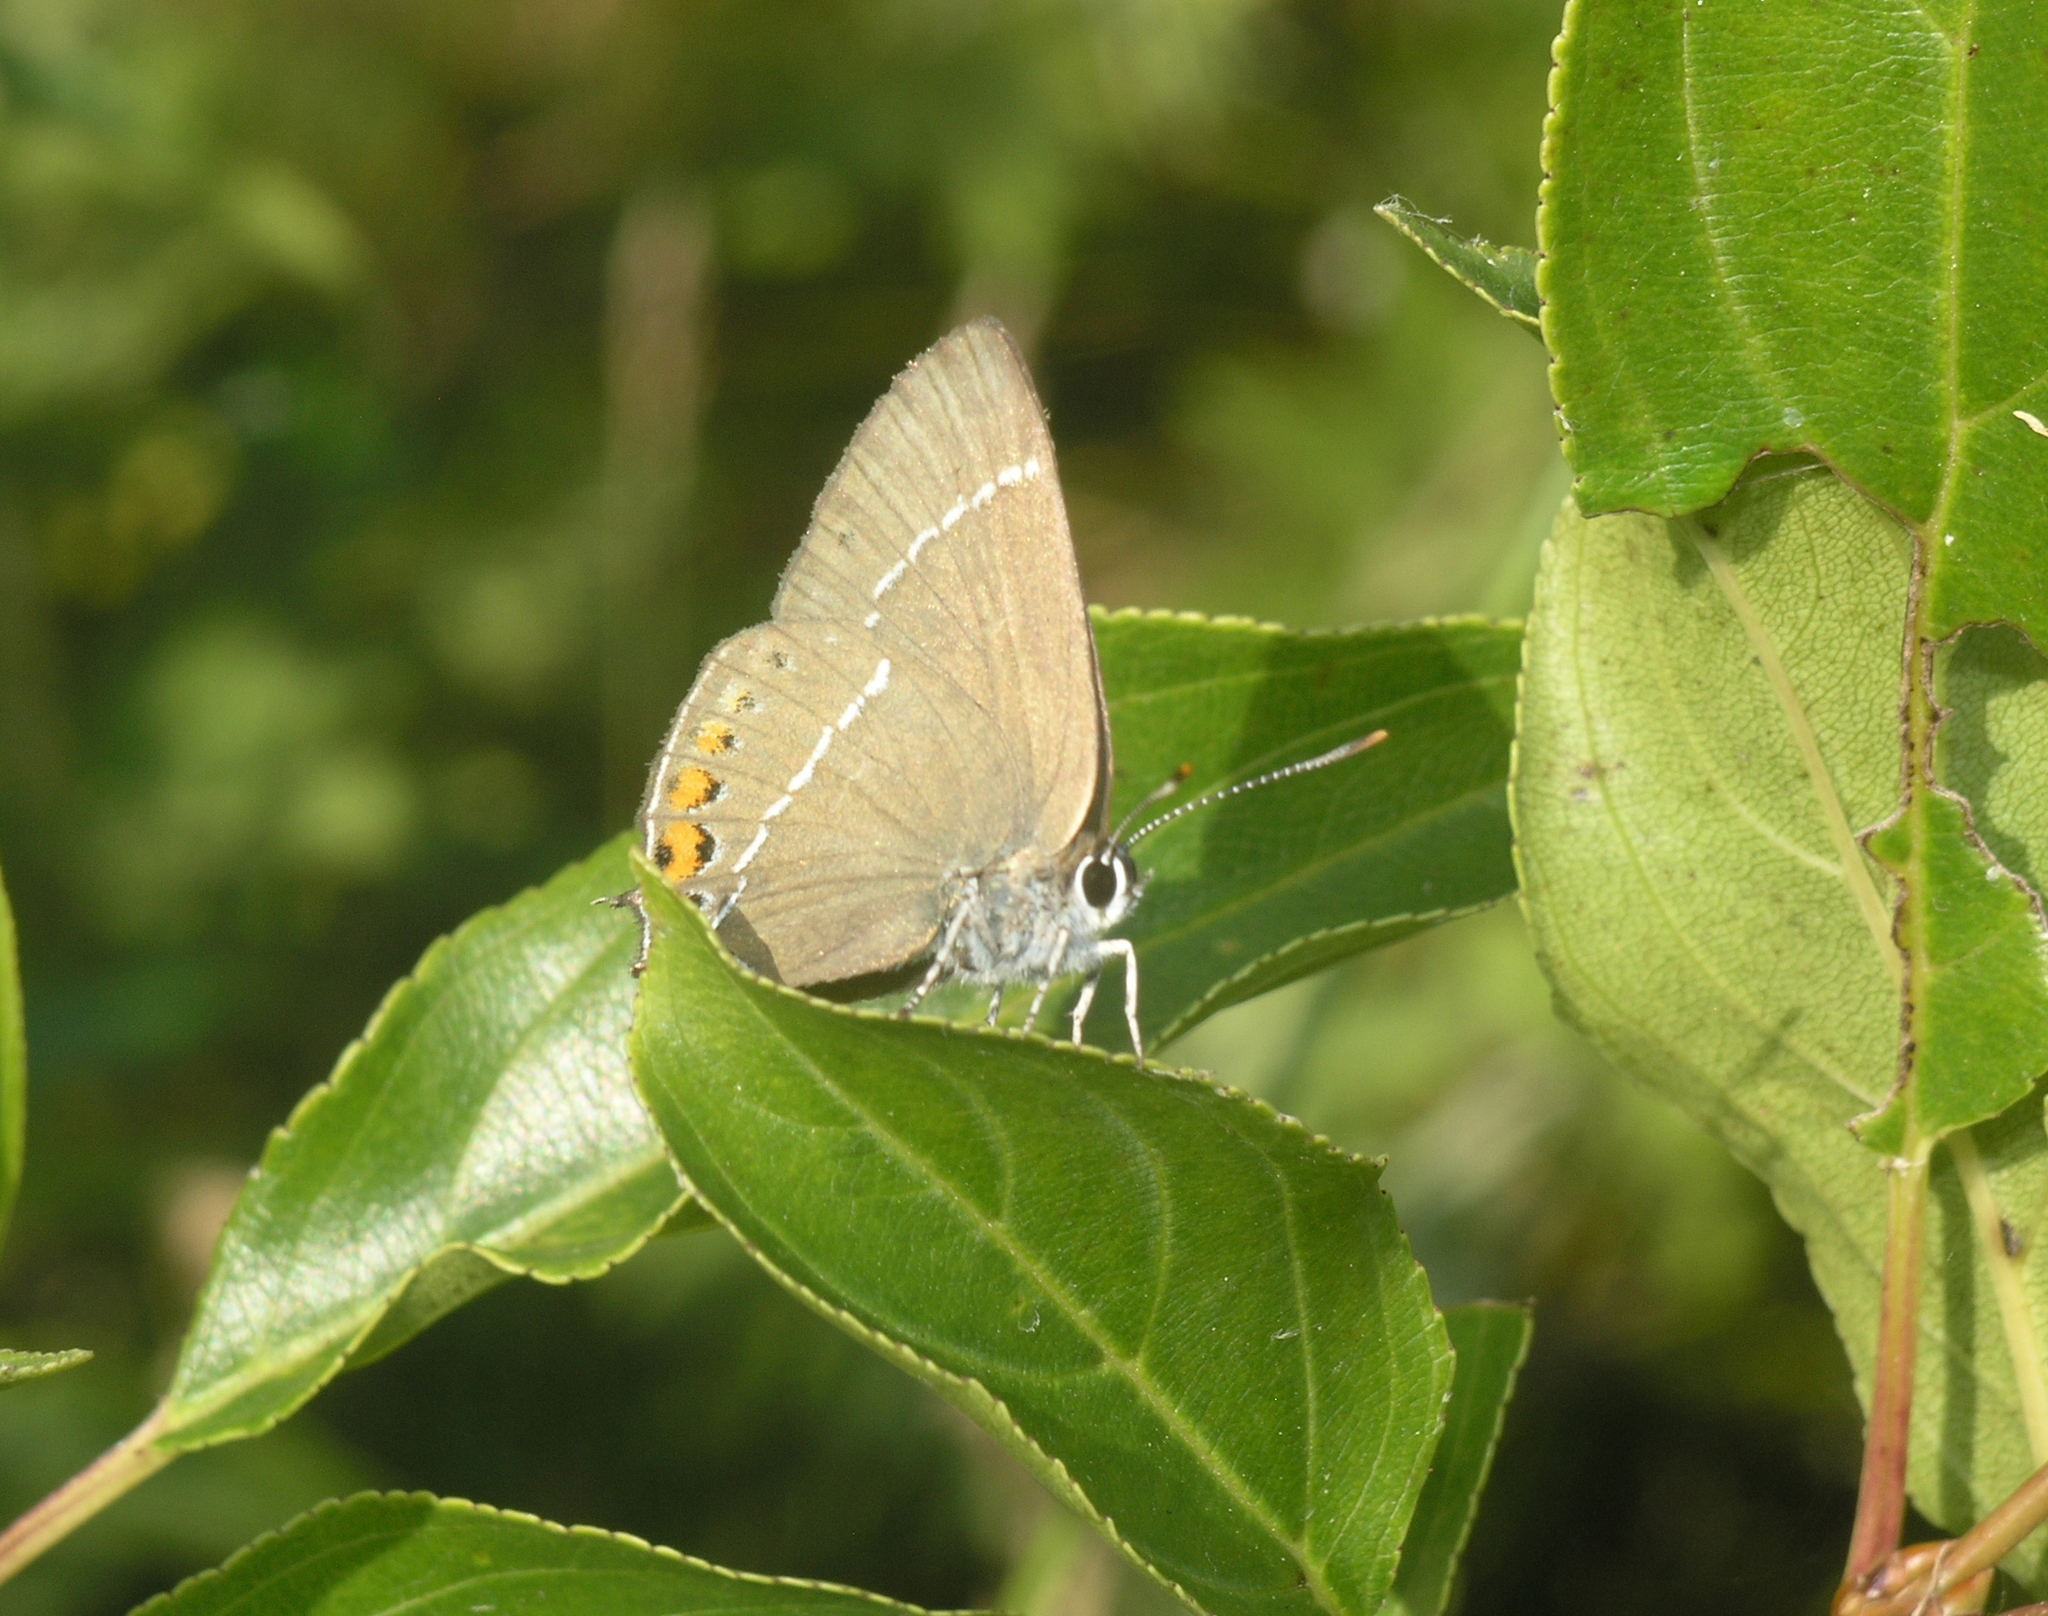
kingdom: Animalia
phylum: Arthropoda
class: Insecta
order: Lepidoptera
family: Lycaenidae
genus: Satyrium
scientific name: Satyrium
